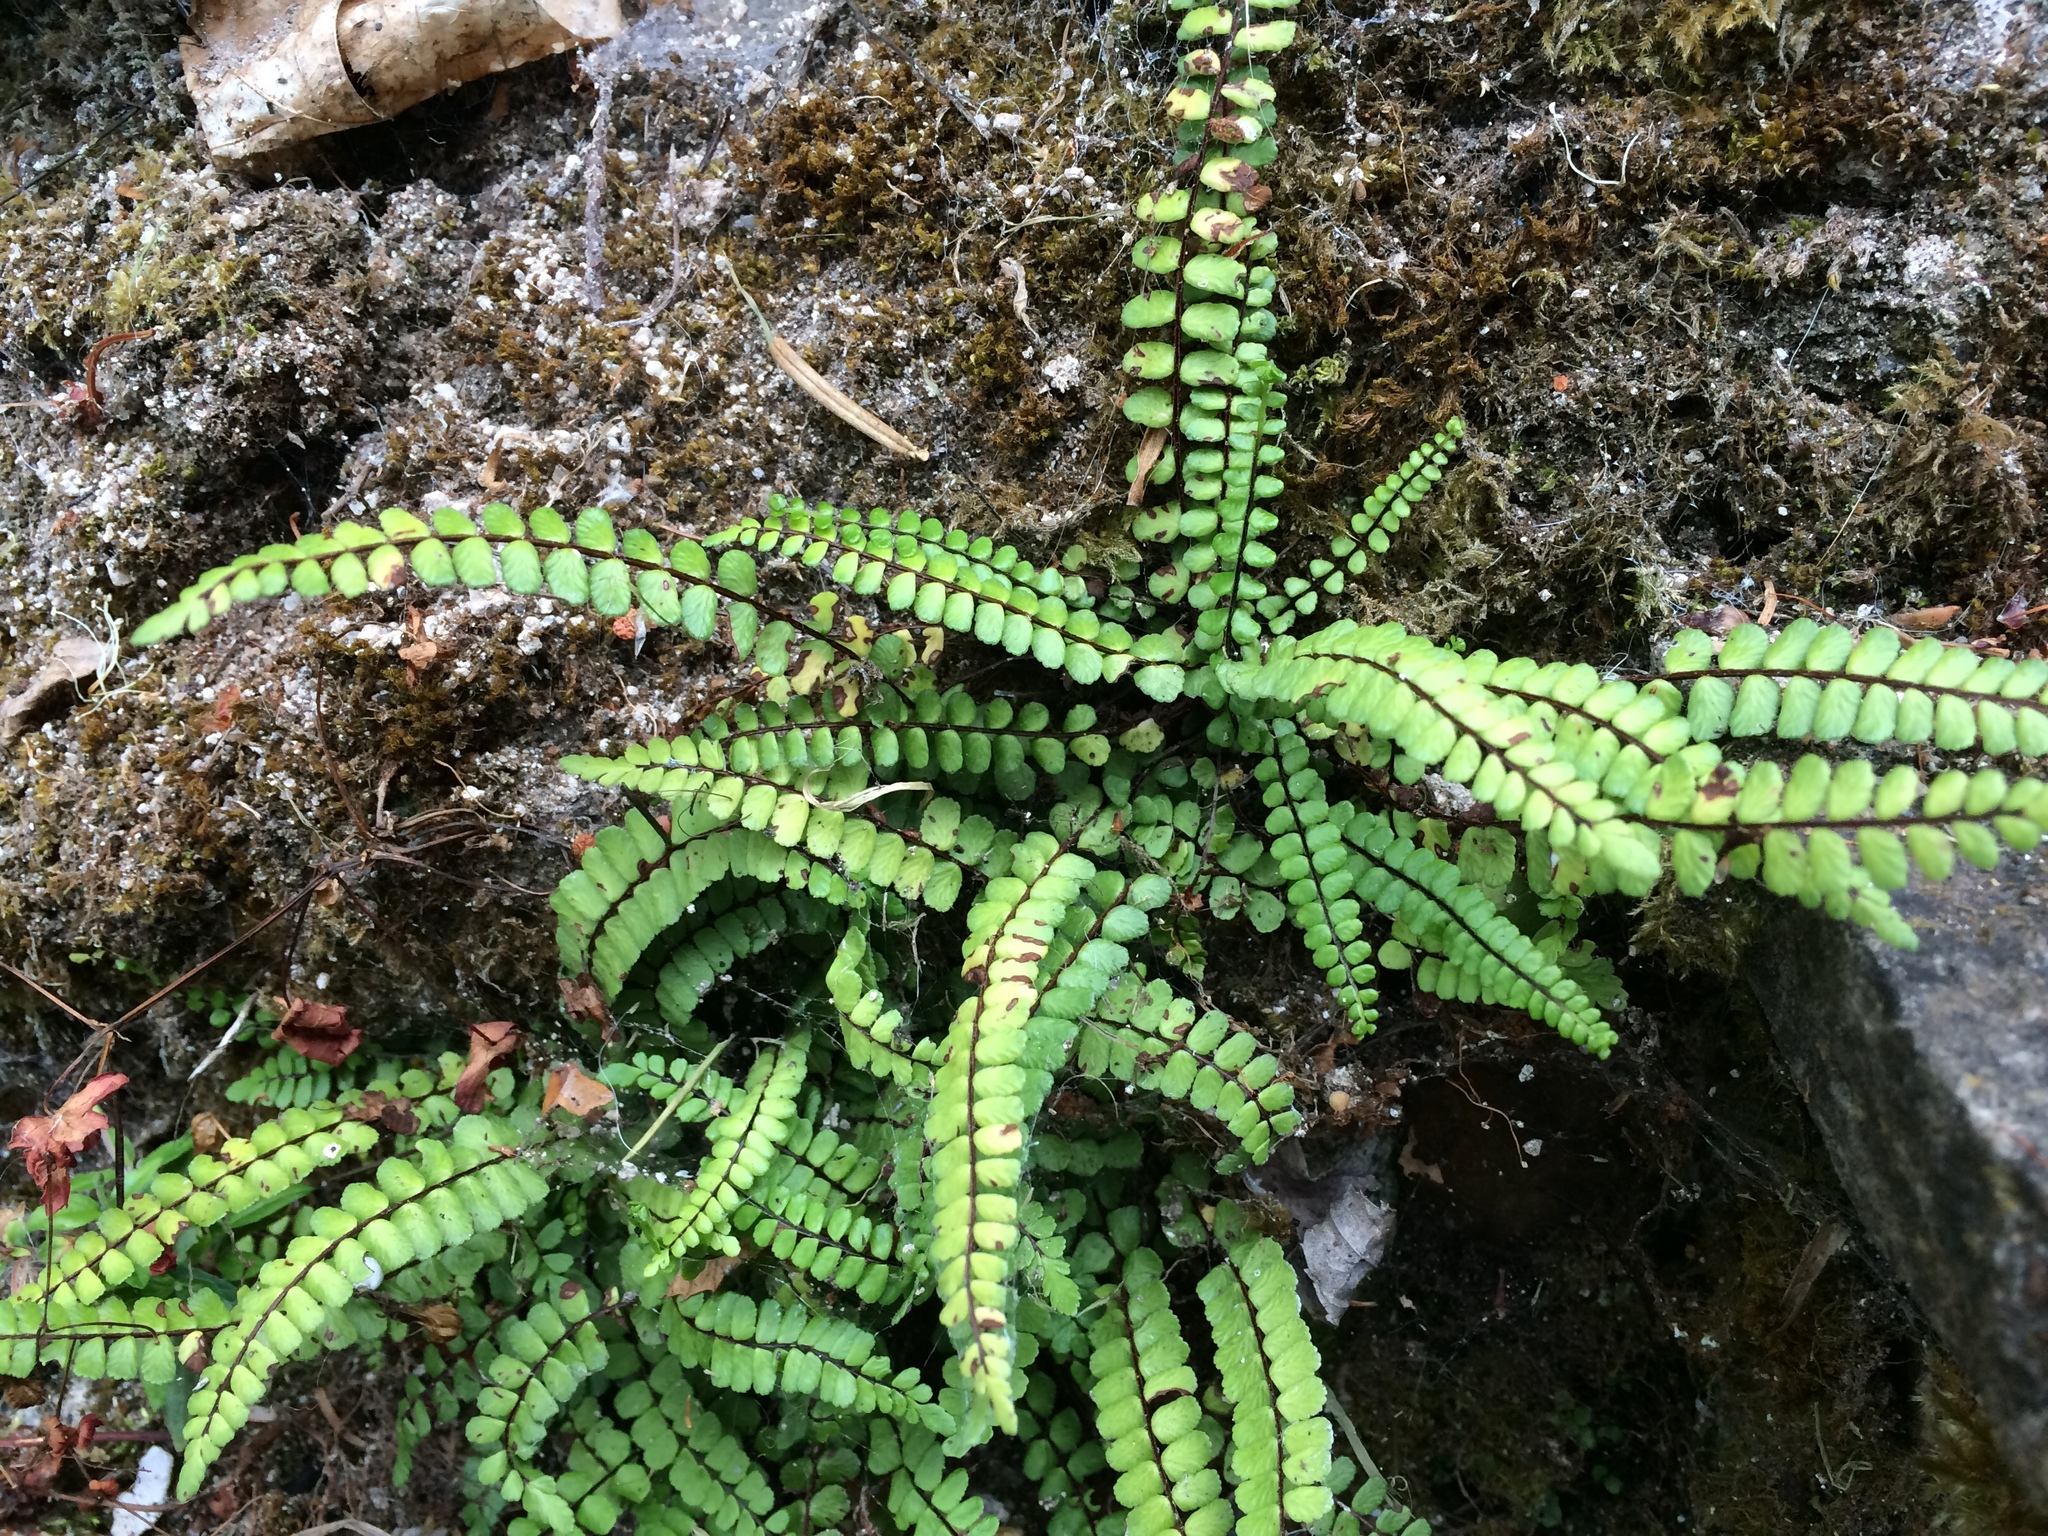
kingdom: Plantae
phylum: Tracheophyta
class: Polypodiopsida
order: Polypodiales
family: Aspleniaceae
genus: Asplenium
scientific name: Asplenium trichomanes
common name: Maidenhair spleenwort
